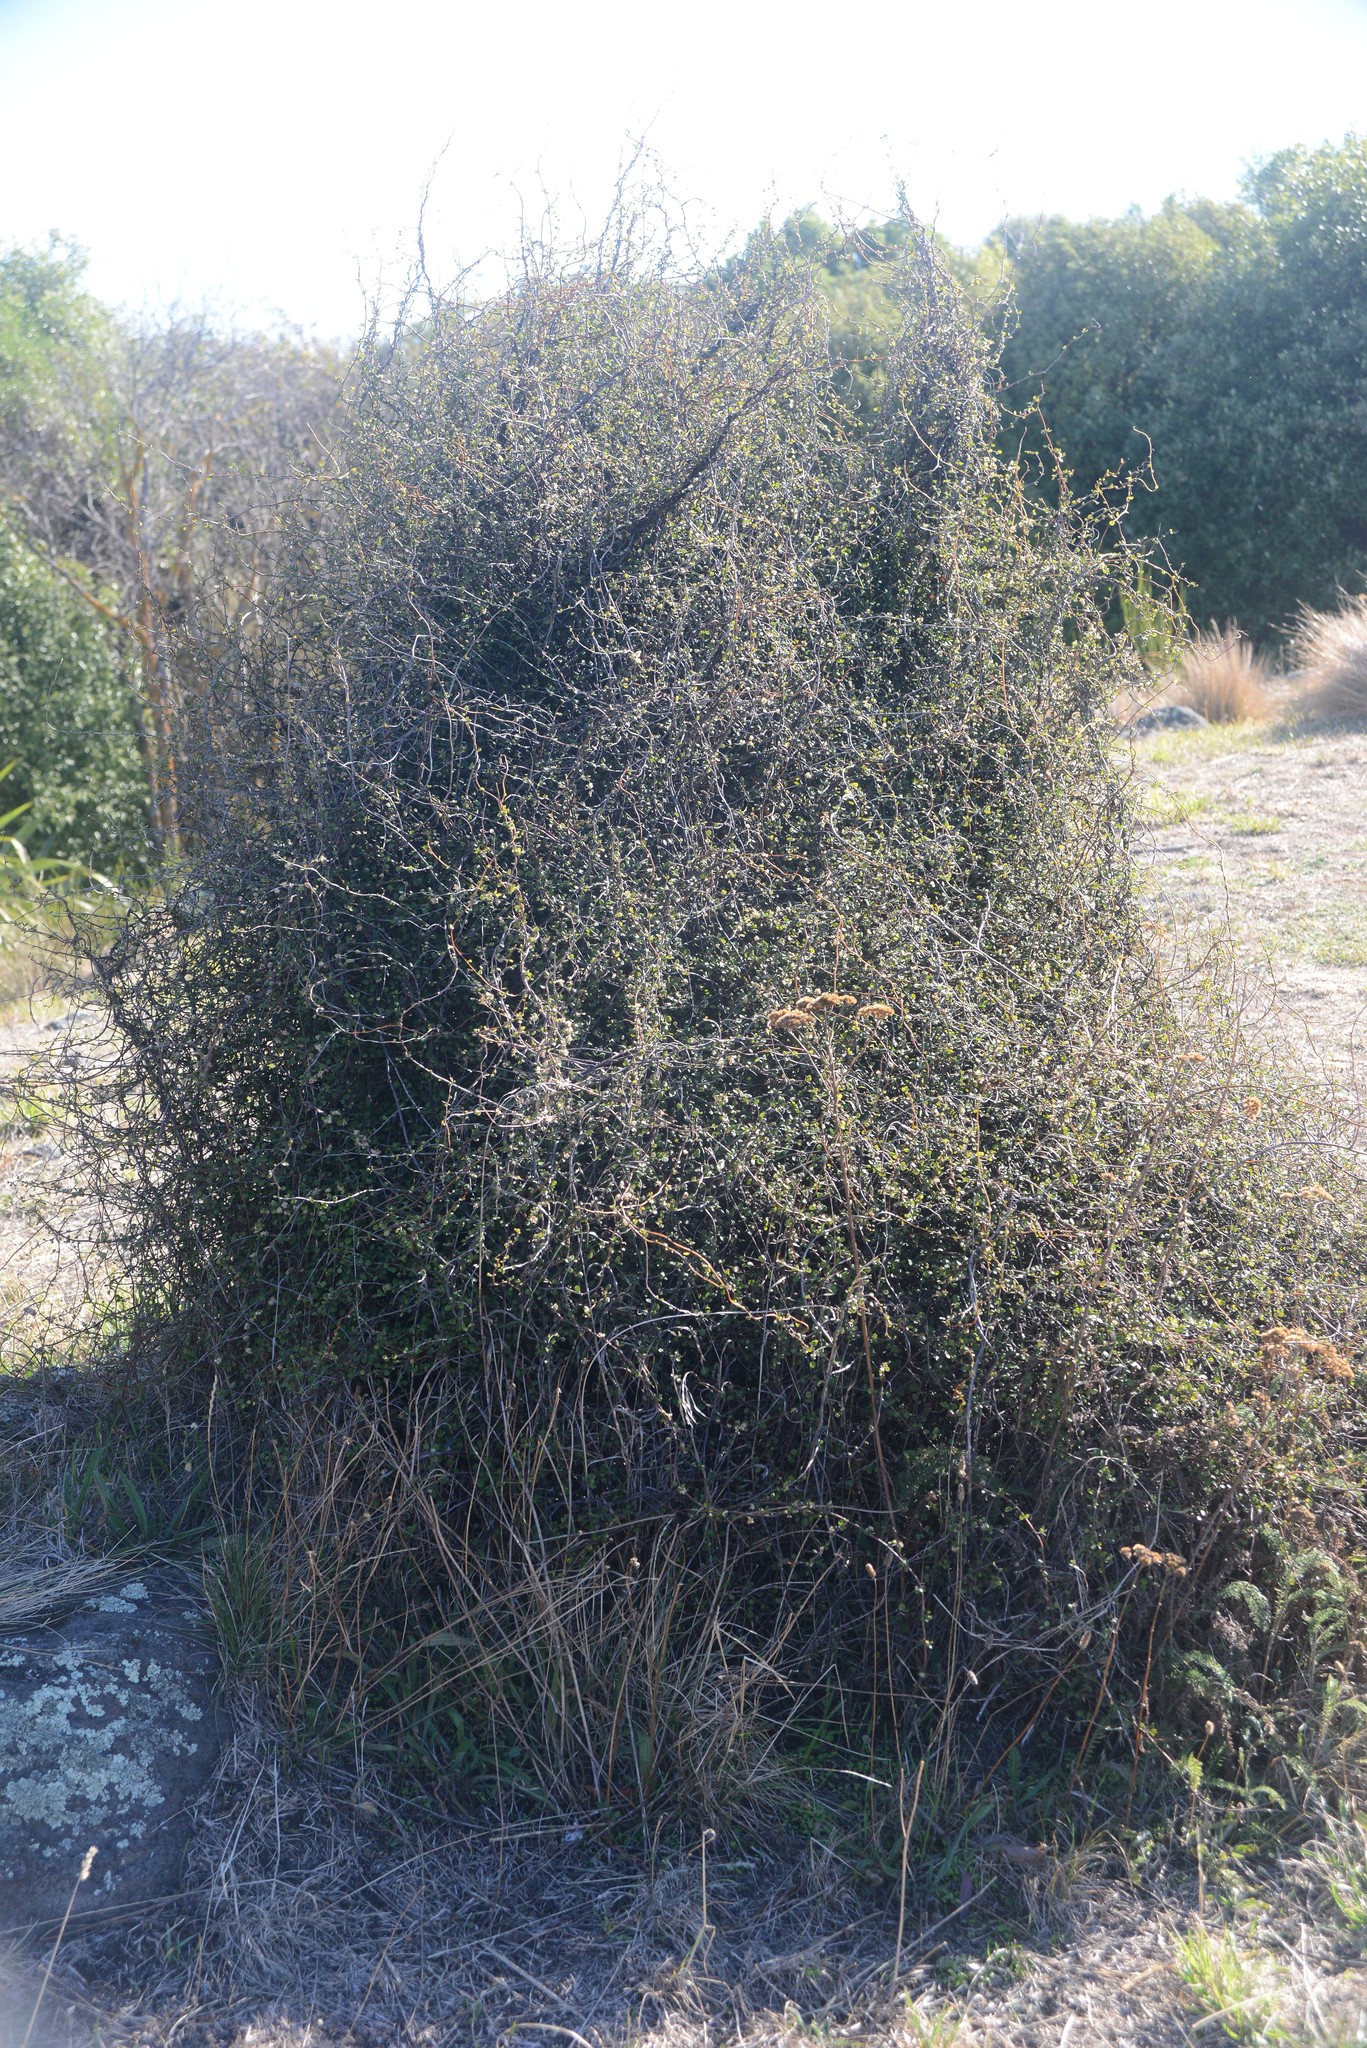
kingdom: Plantae
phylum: Tracheophyta
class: Magnoliopsida
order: Caryophyllales
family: Polygonaceae
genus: Muehlenbeckia
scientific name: Muehlenbeckia complexa
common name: Wireplant
